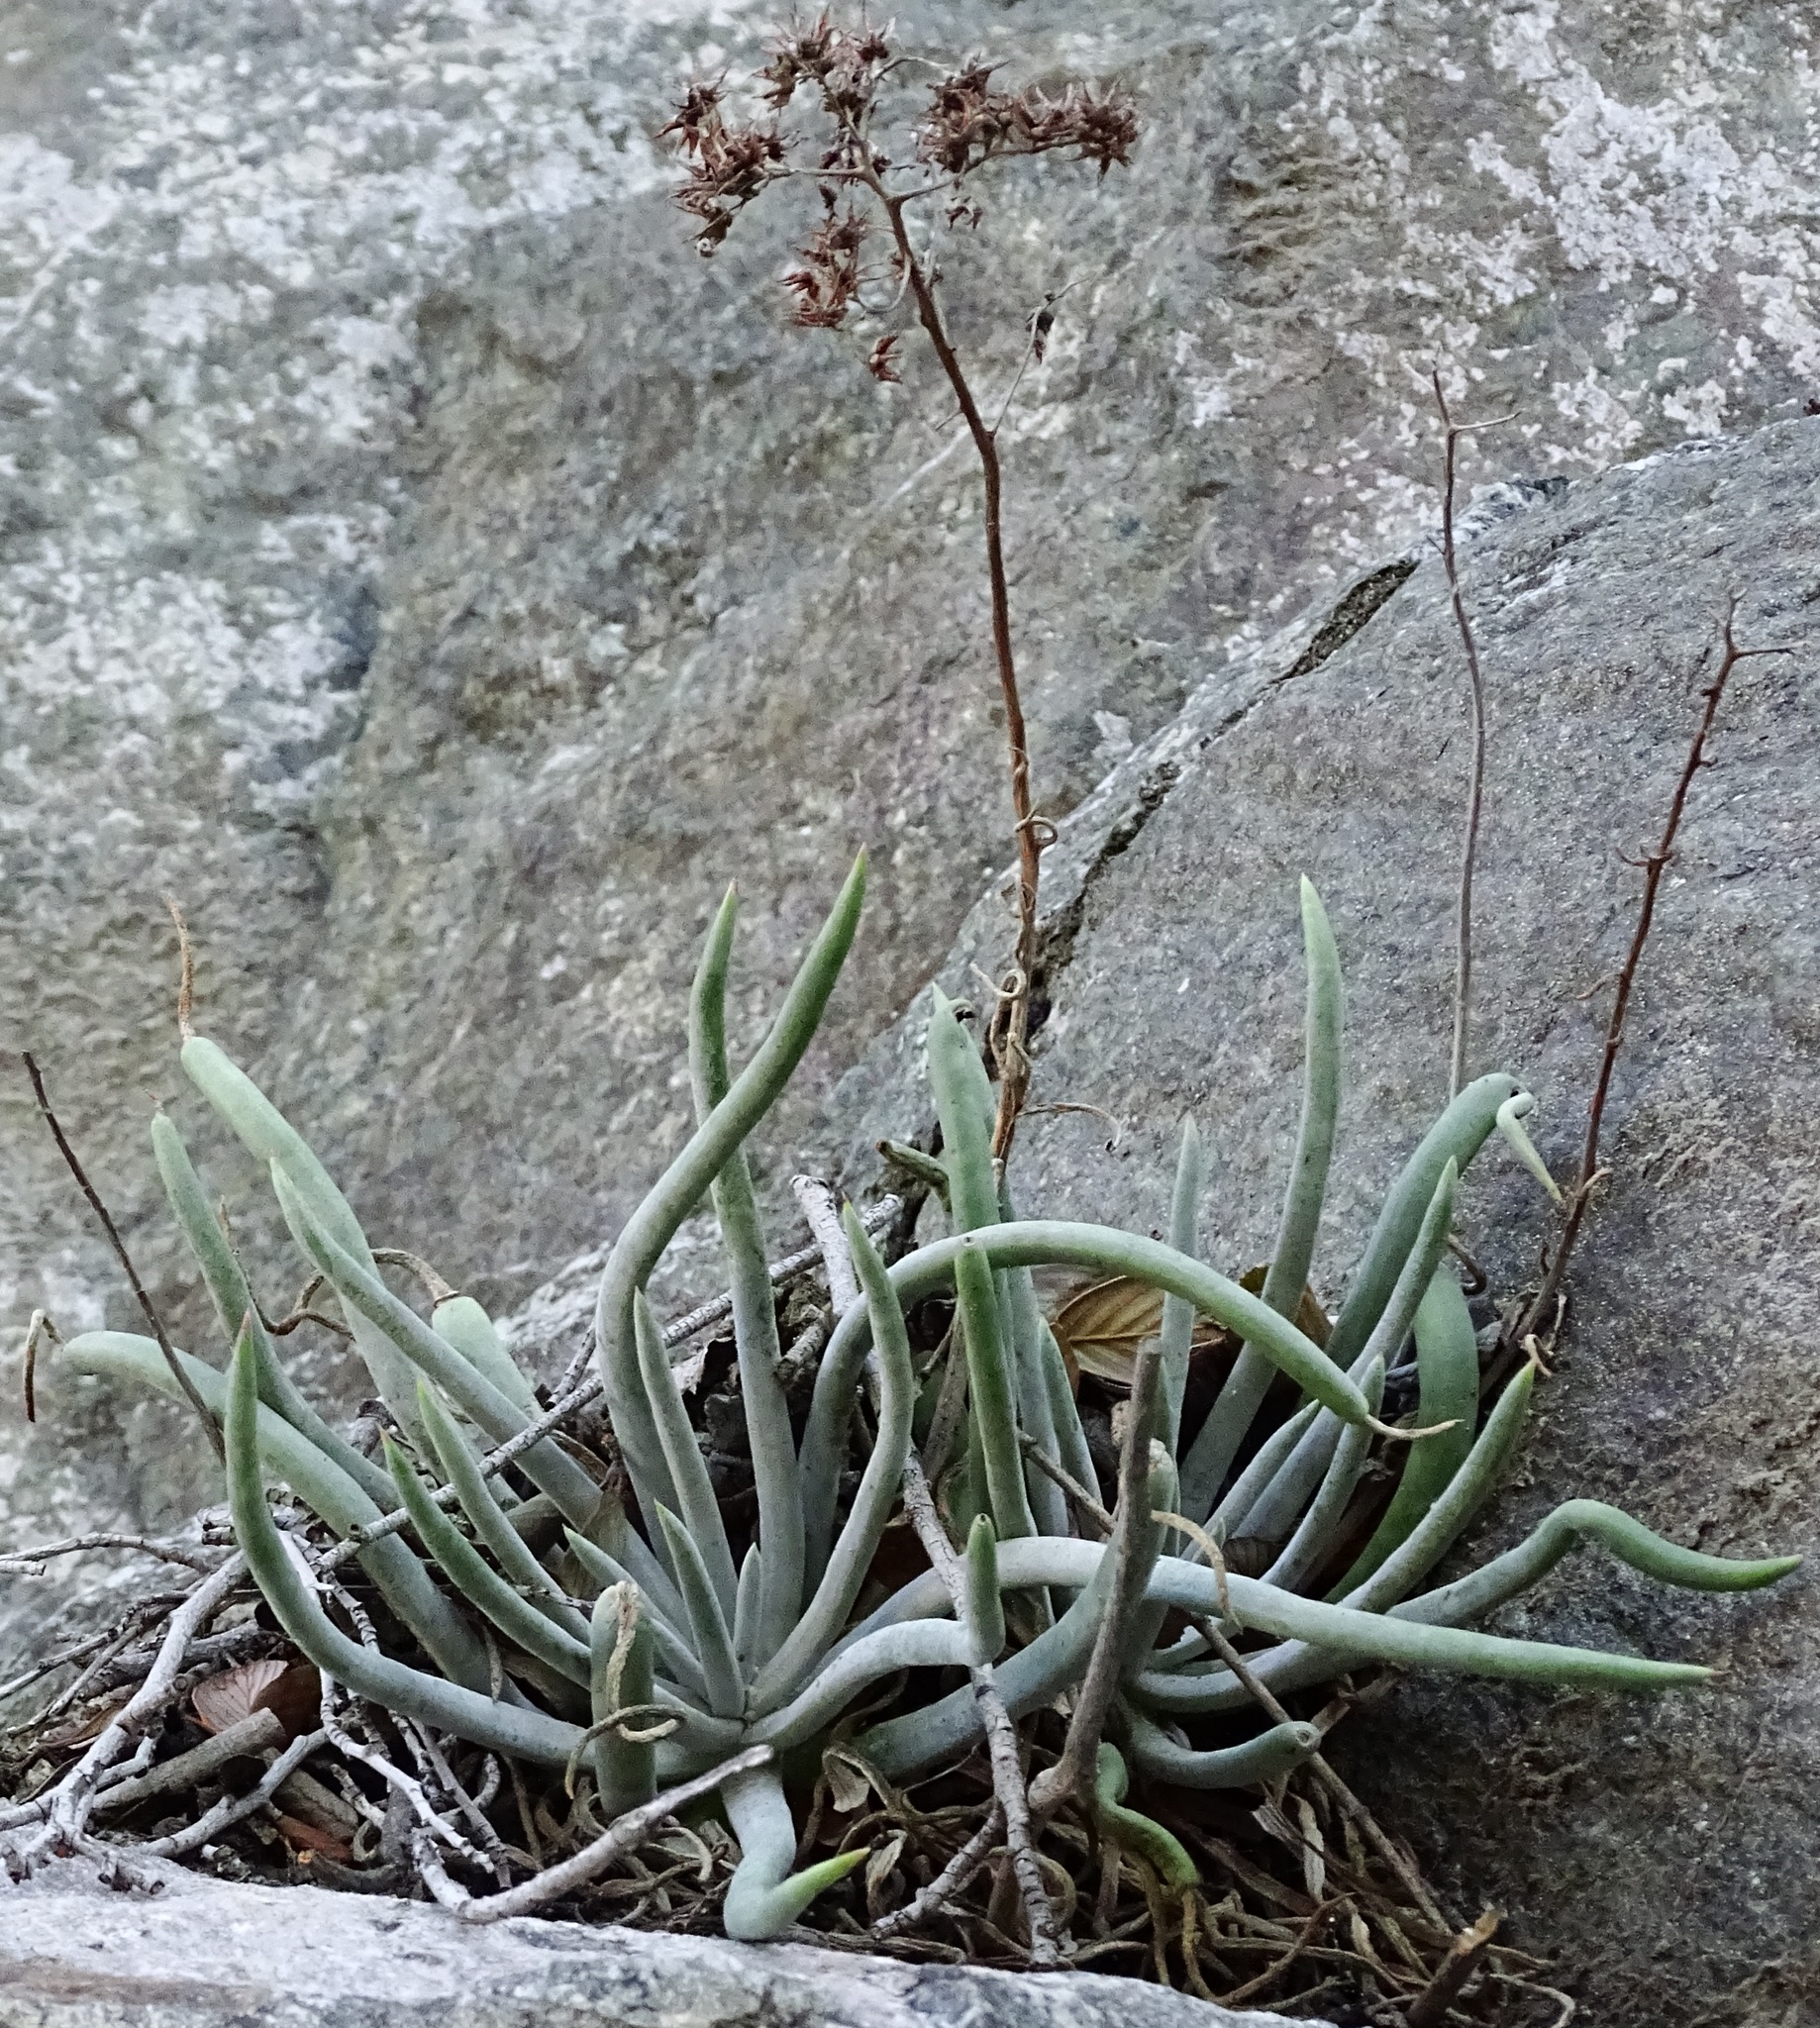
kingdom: Plantae
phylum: Tracheophyta
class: Magnoliopsida
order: Saxifragales
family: Crassulaceae
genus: Dudleya
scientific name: Dudleya densiflora
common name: San gabriel mountains dudleya
